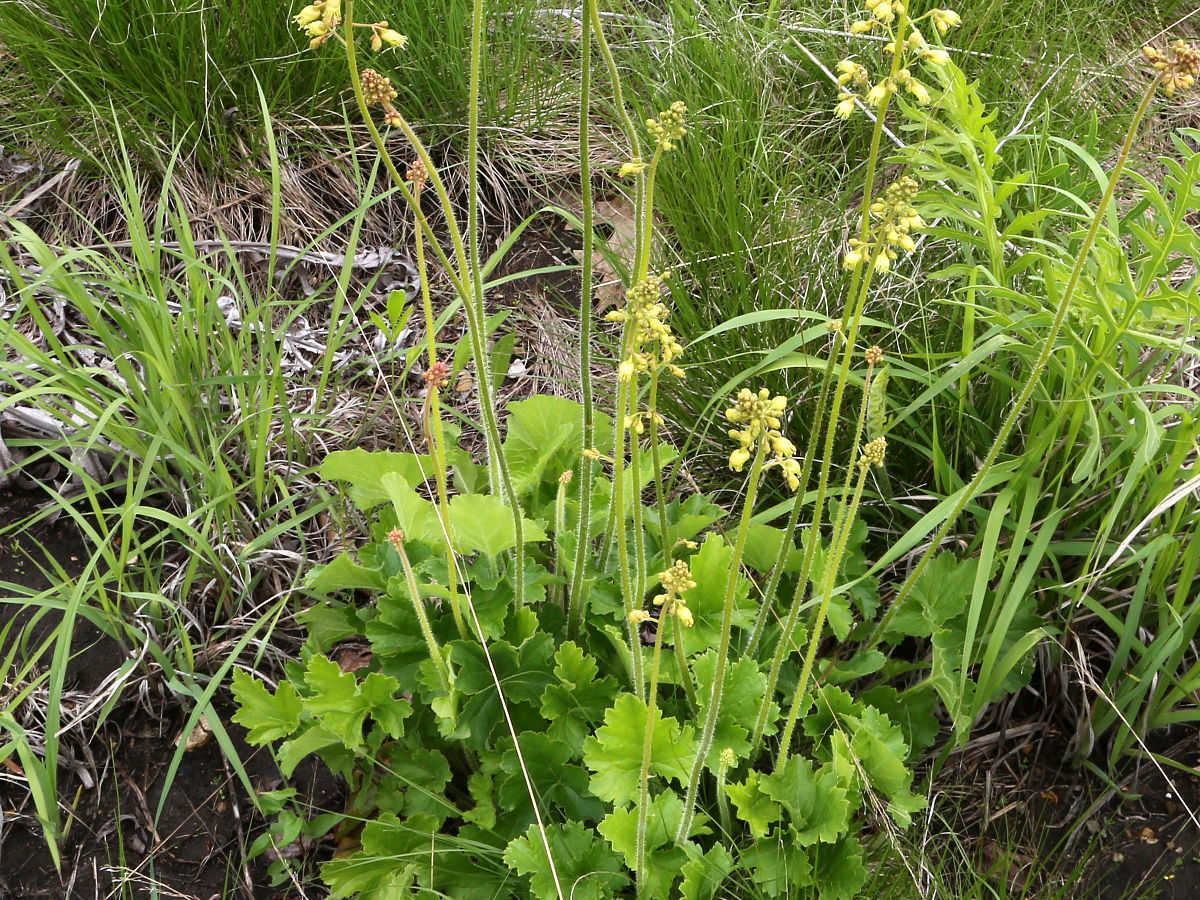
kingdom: Plantae
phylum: Tracheophyta
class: Magnoliopsida
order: Saxifragales
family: Saxifragaceae
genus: Heuchera
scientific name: Heuchera richardsonii
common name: Richardson's alumroot
